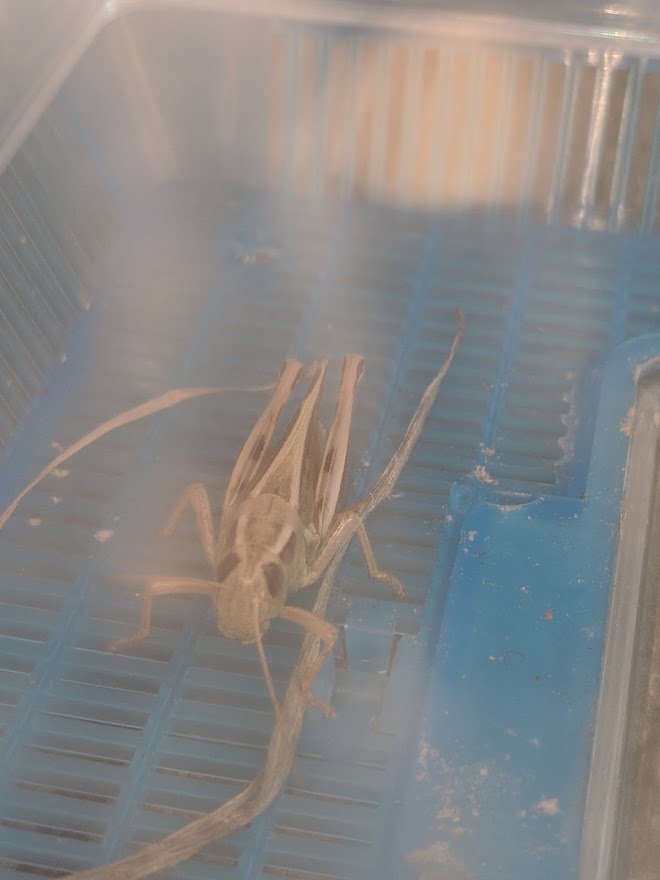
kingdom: Animalia
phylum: Arthropoda
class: Insecta
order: Orthoptera
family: Acrididae
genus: Melanoplus
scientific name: Melanoplus bivittatus
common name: Two-striped grasshopper
